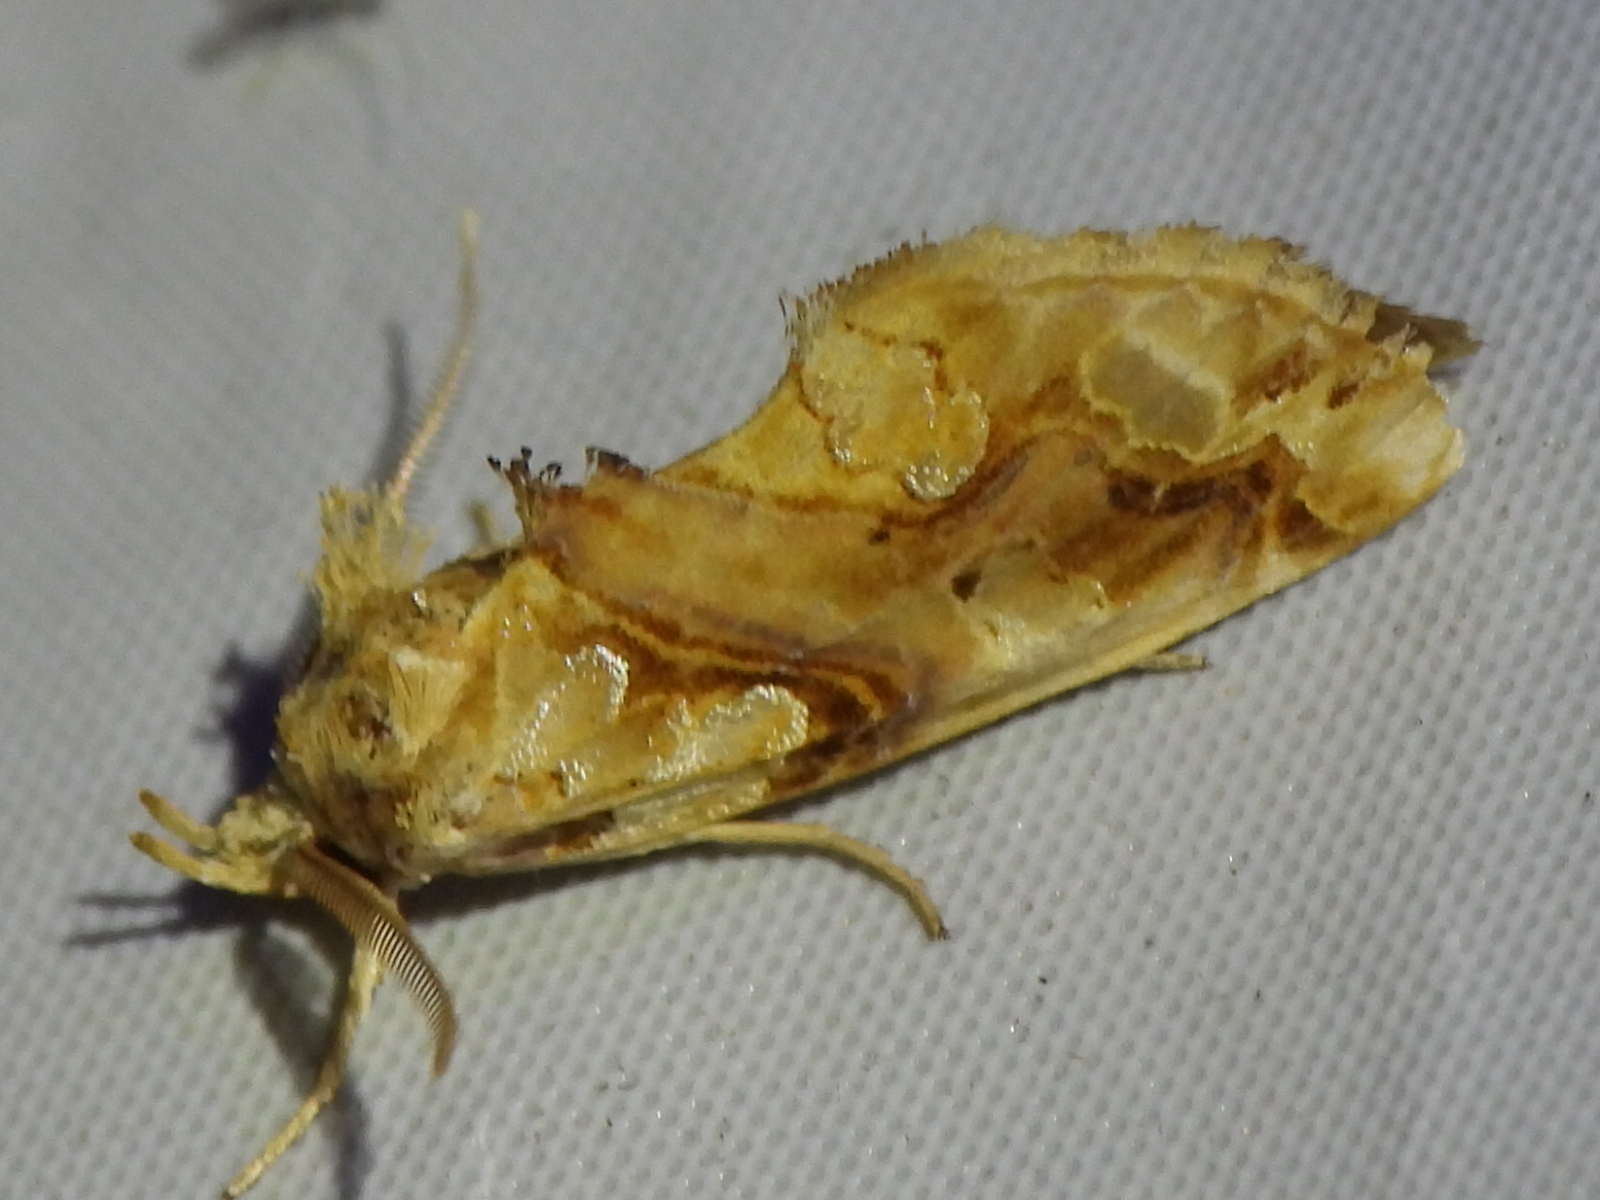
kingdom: Animalia
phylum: Arthropoda
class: Insecta
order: Lepidoptera
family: Erebidae
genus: Plusiodonta
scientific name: Plusiodonta compressipalpis
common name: Moonseed moth
